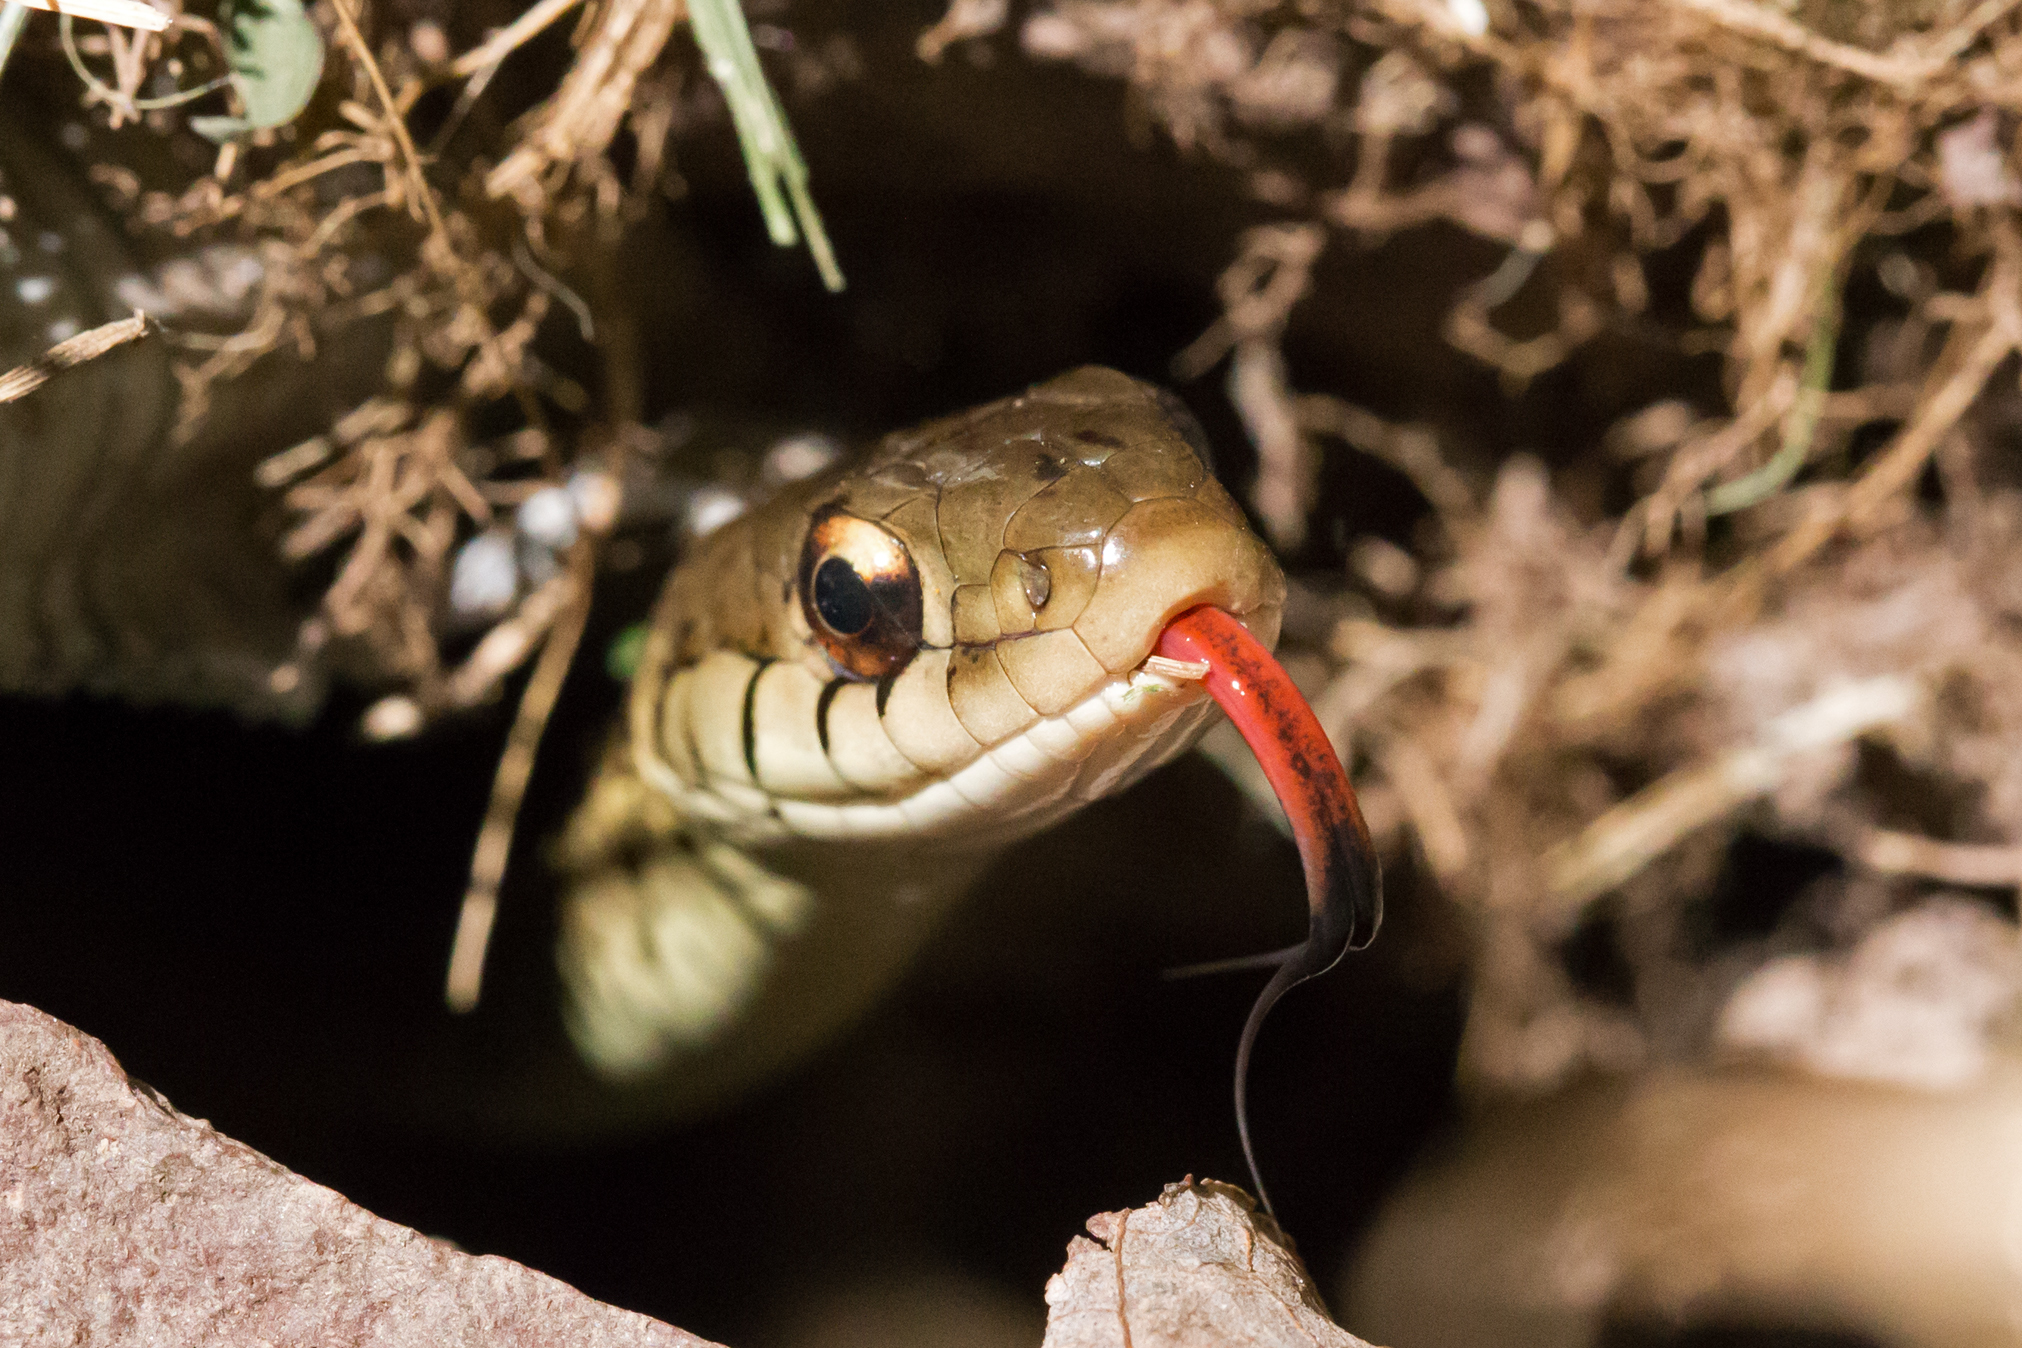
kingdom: Animalia
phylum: Chordata
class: Squamata
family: Colubridae
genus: Thamnophis
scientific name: Thamnophis sirtalis
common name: Common garter snake
